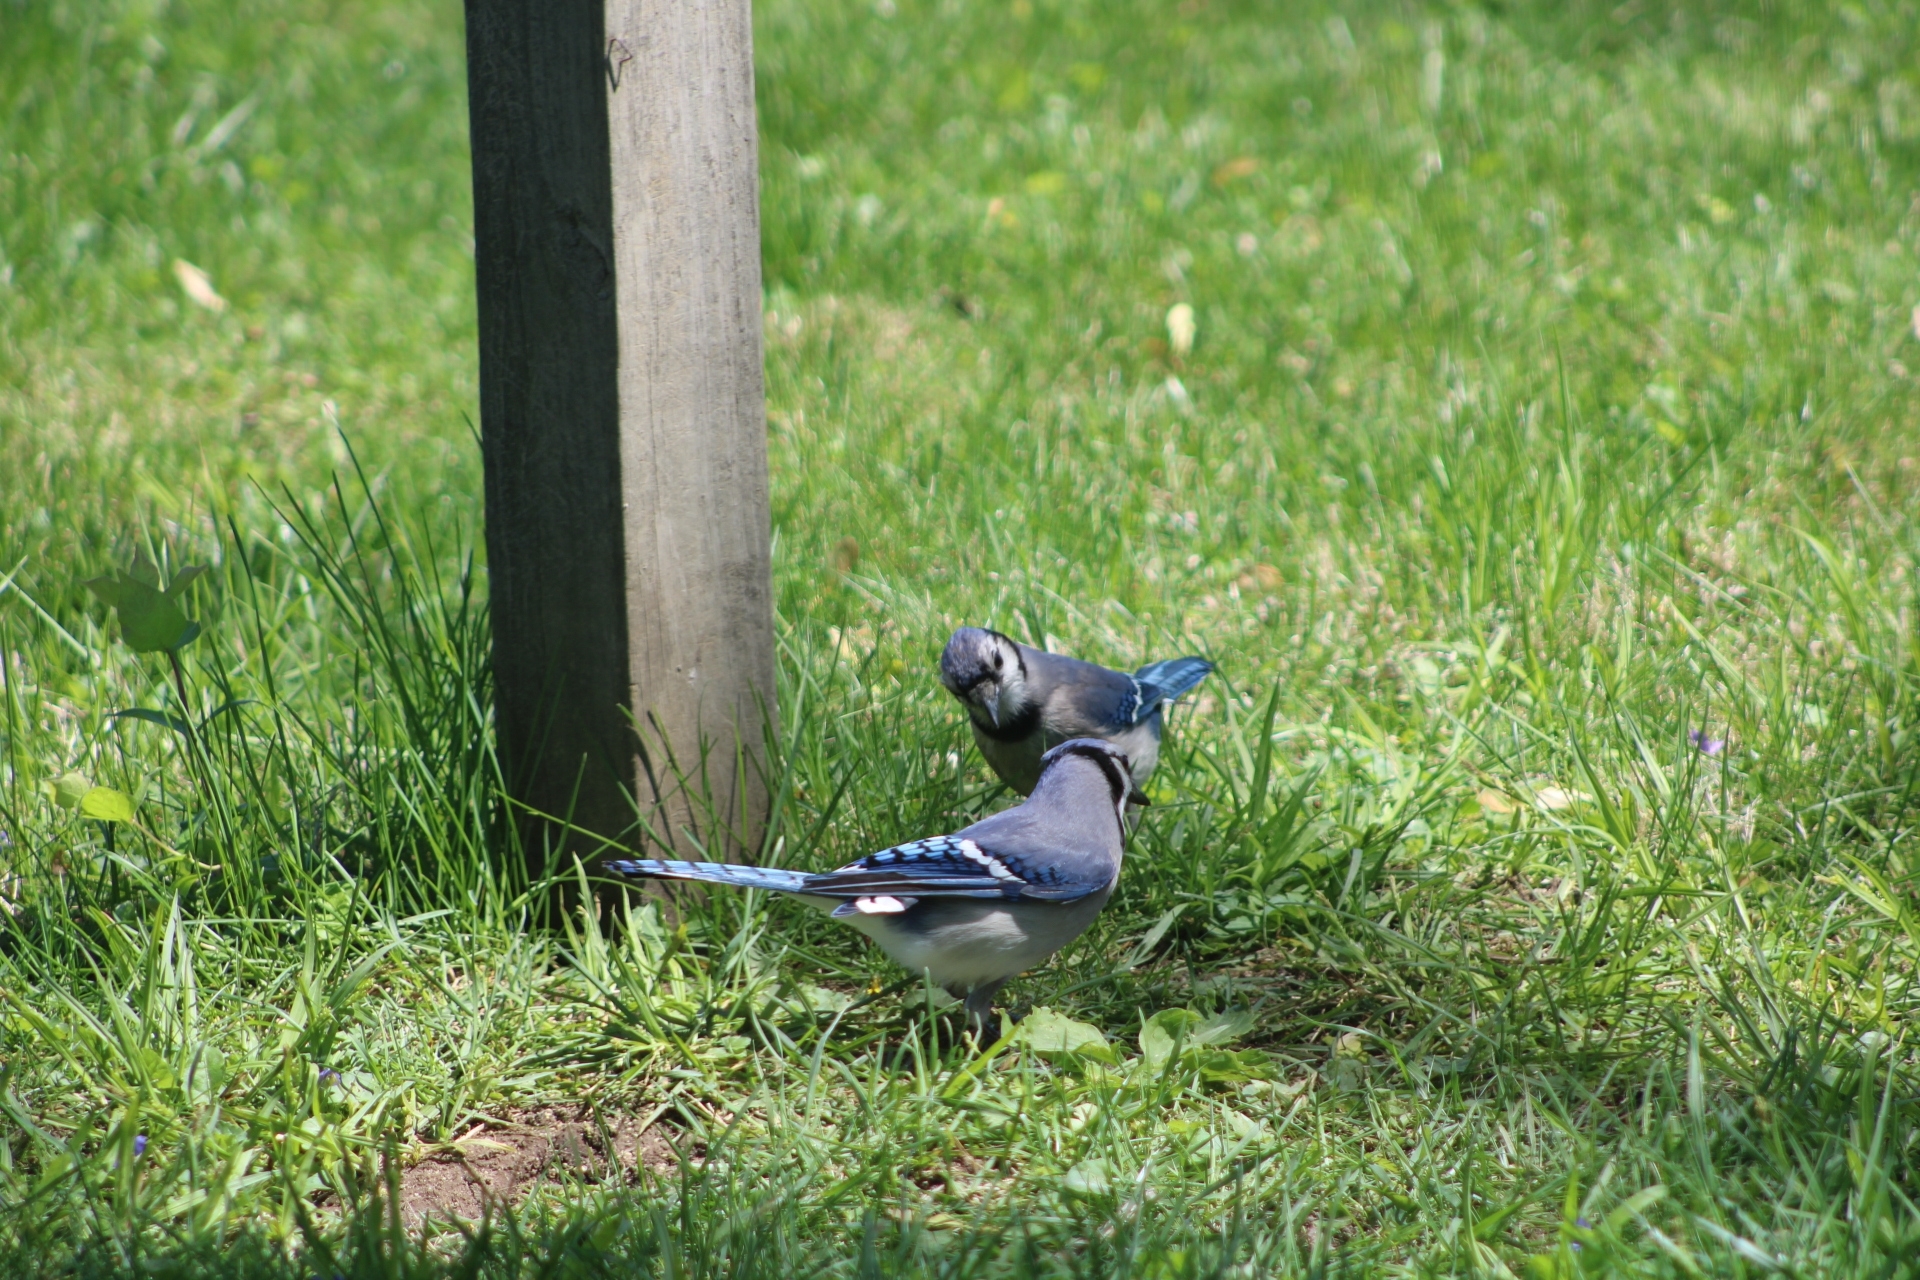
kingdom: Animalia
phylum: Chordata
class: Aves
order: Passeriformes
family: Corvidae
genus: Cyanocitta
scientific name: Cyanocitta cristata
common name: Blue jay
